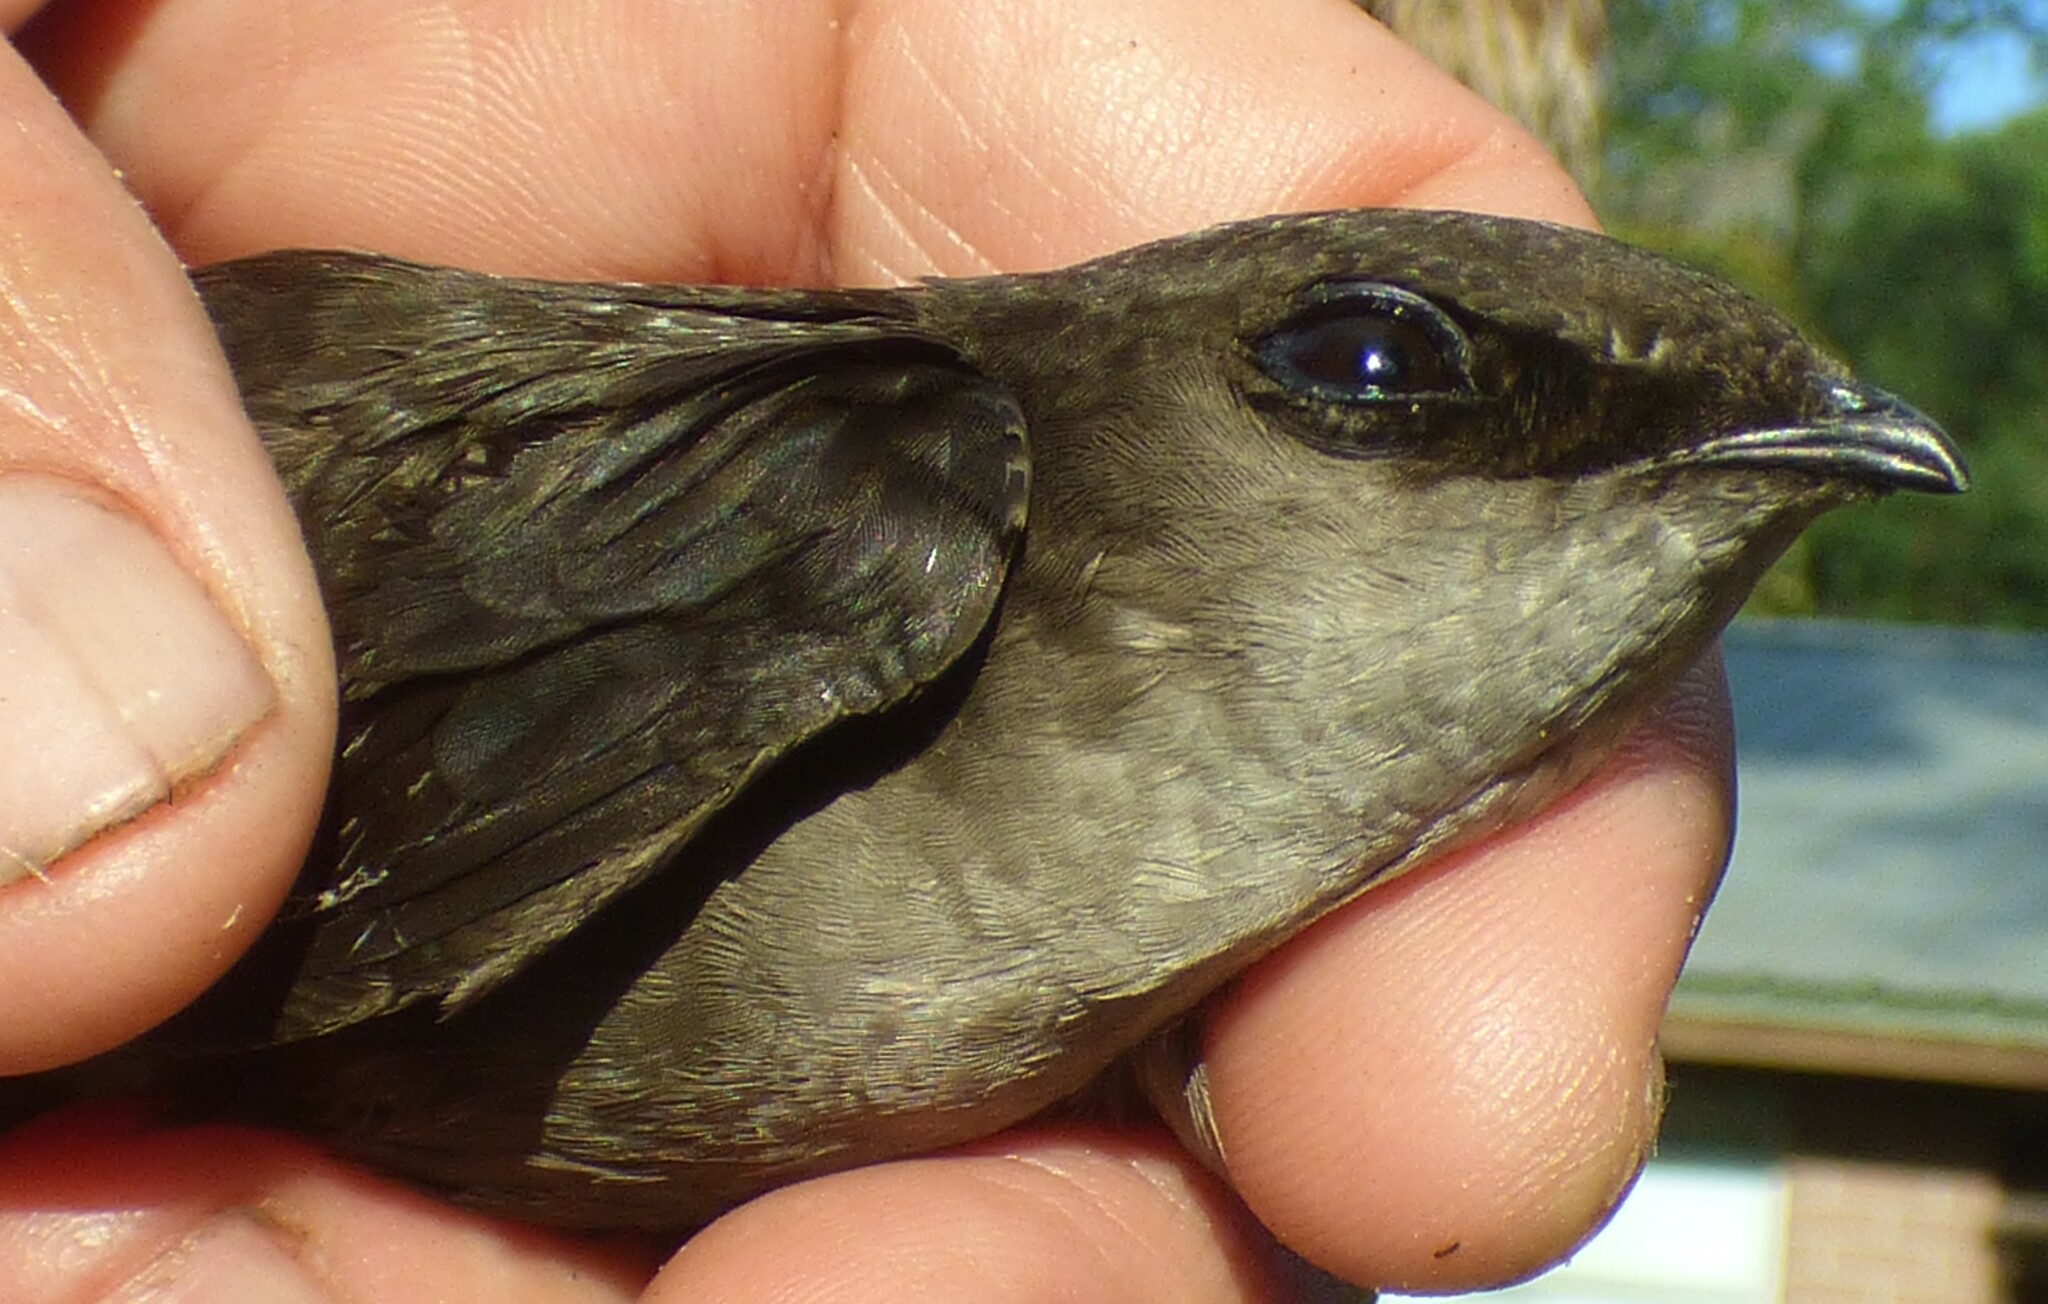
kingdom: Animalia
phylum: Chordata
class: Aves
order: Apodiformes
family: Apodidae
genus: Chaetura
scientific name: Chaetura pelagica
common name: Chimney swift
